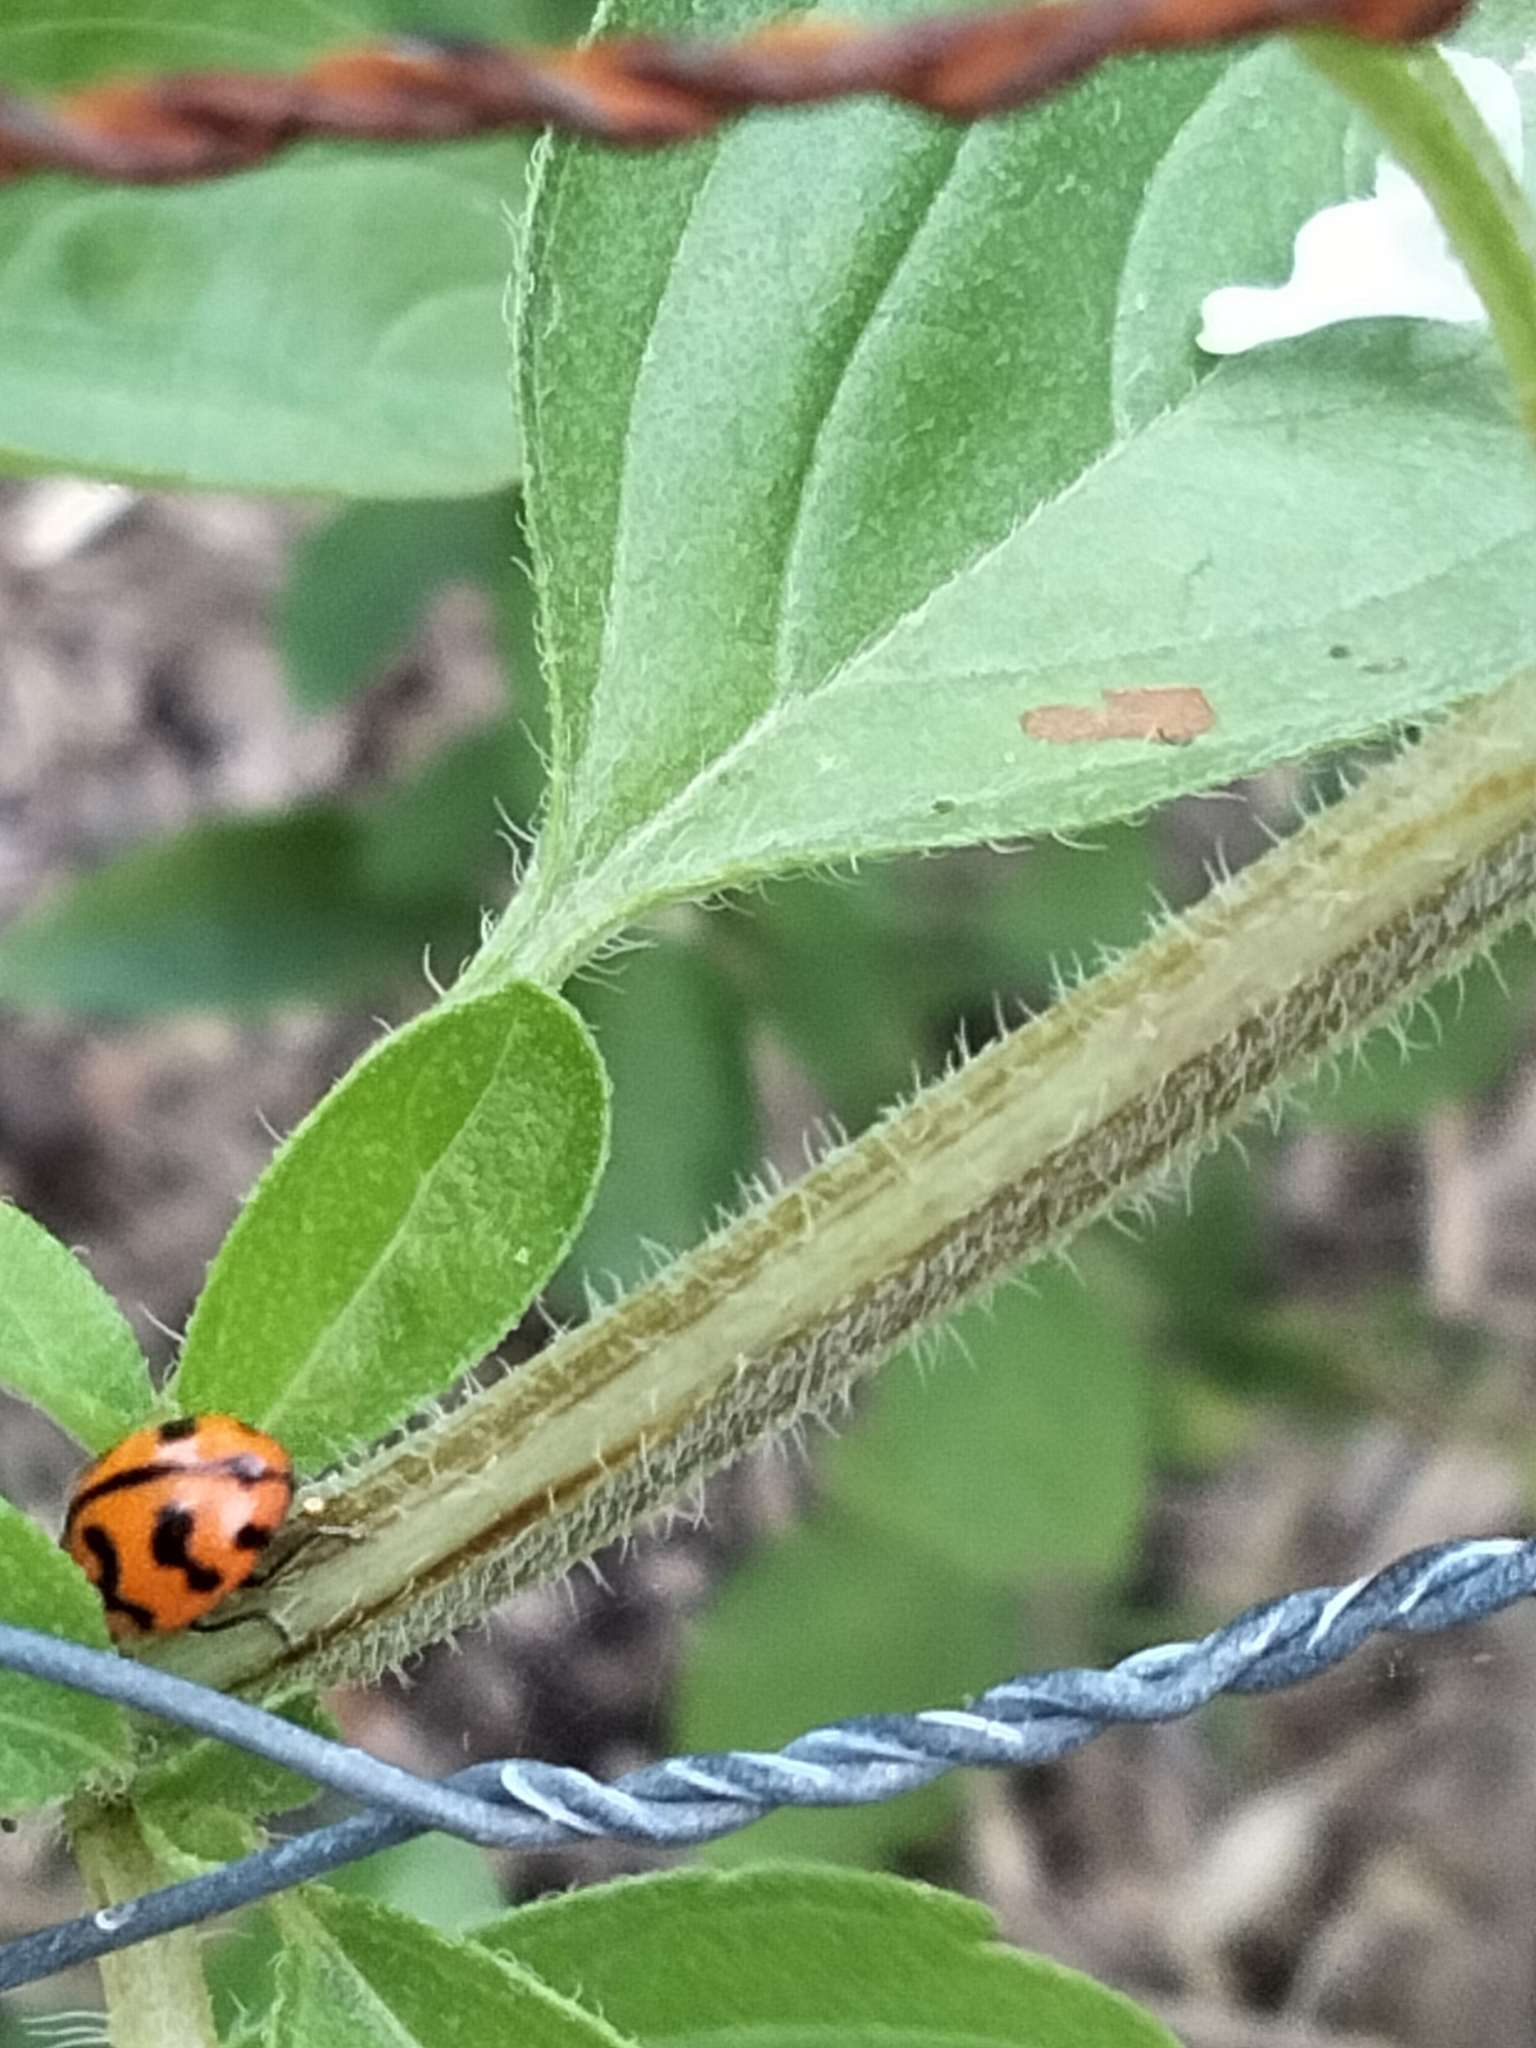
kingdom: Animalia
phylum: Arthropoda
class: Insecta
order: Coleoptera
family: Coccinellidae
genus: Coccinella
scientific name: Coccinella transversalis
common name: Transverse lady beetle
